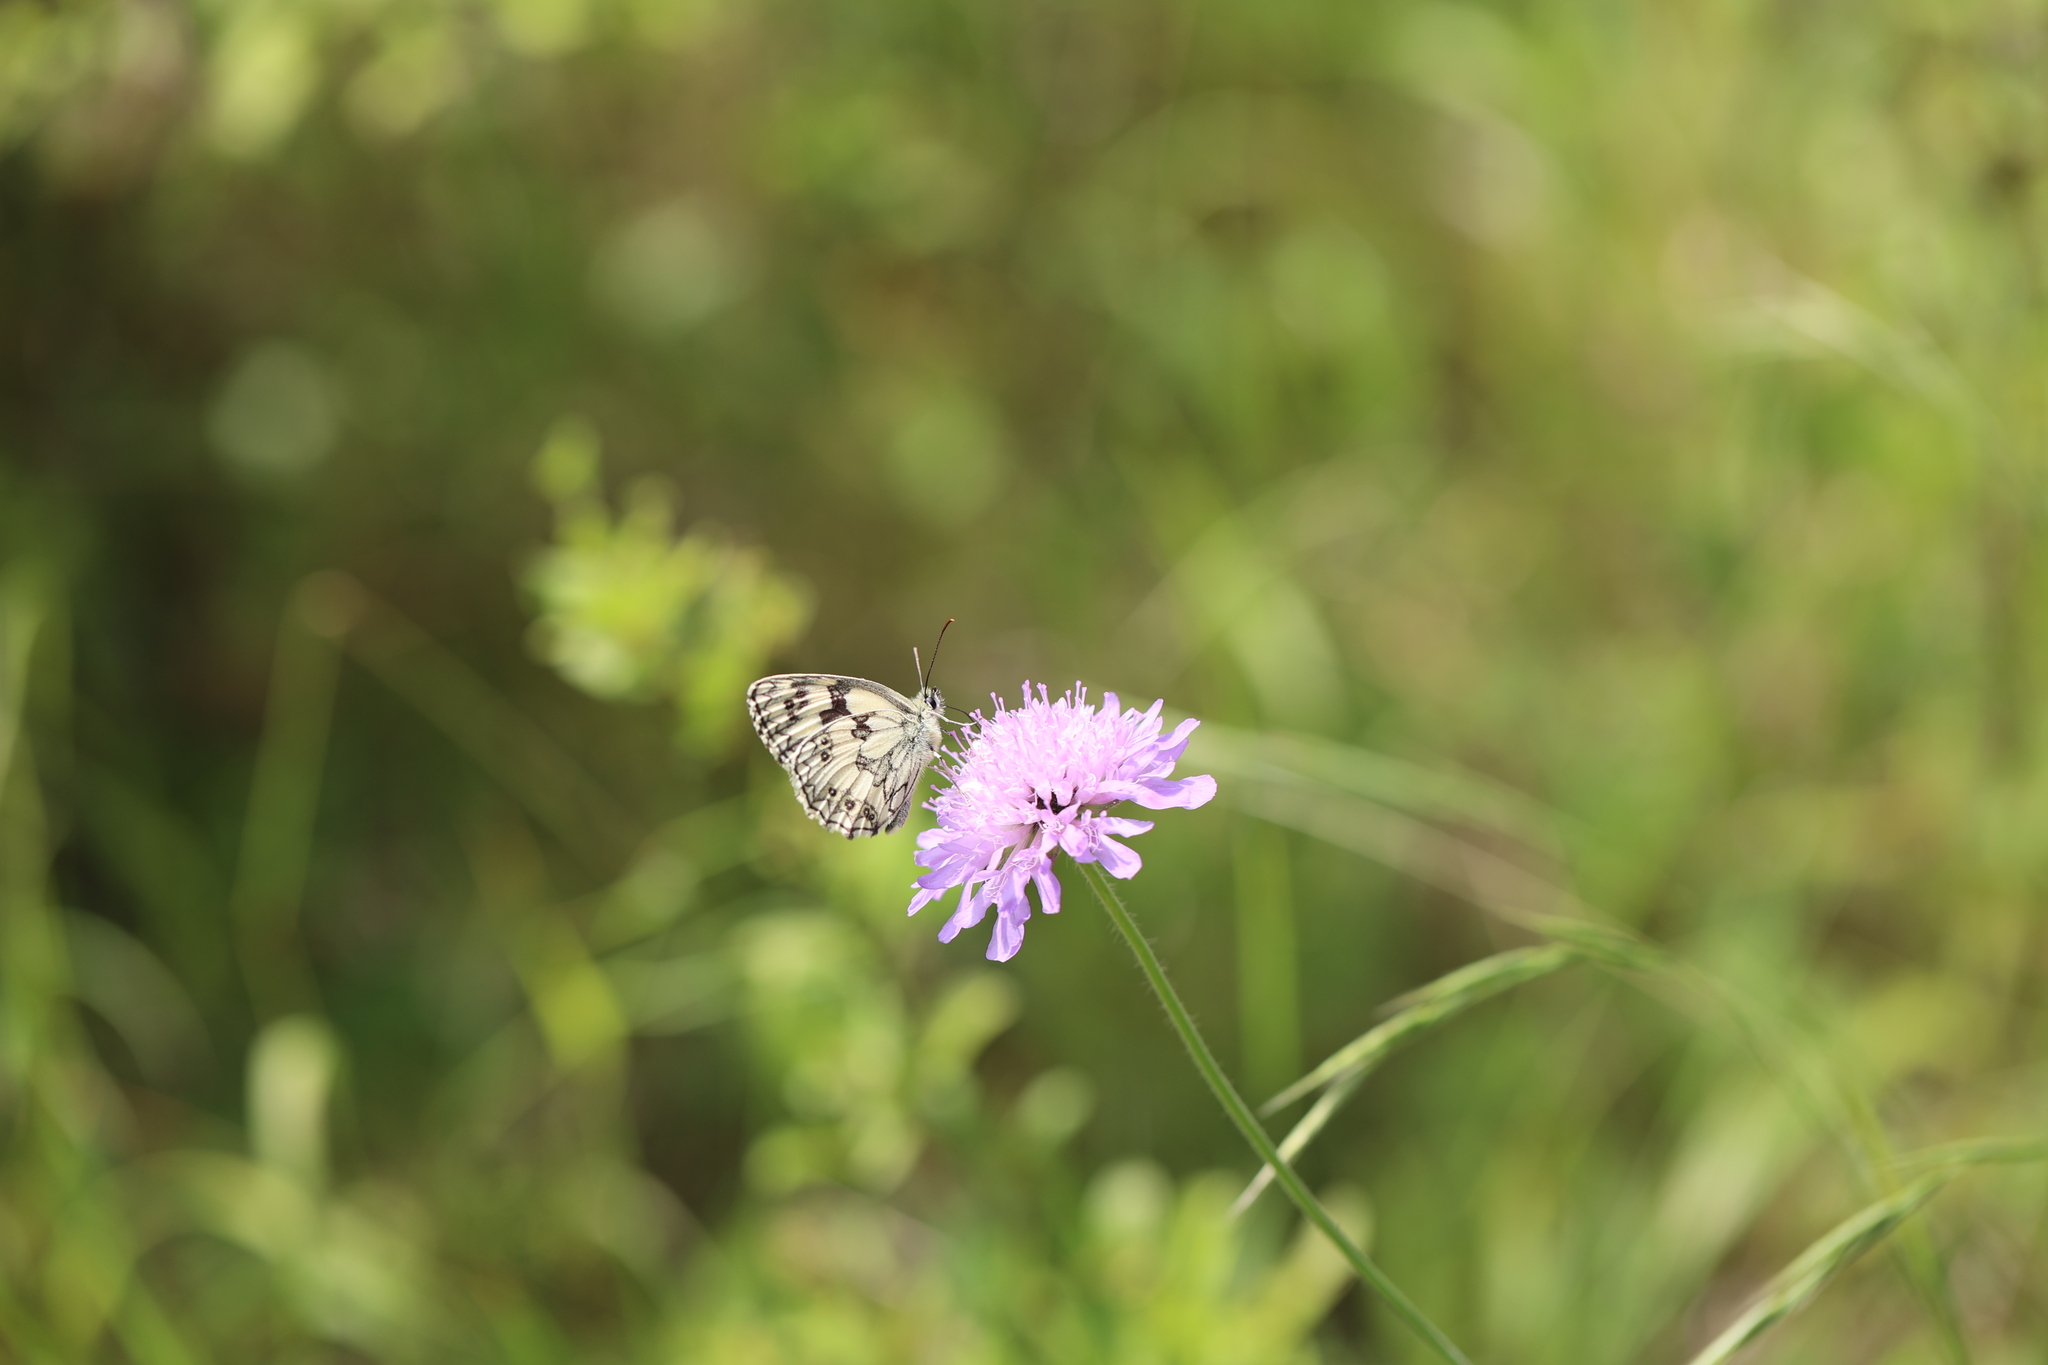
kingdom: Animalia
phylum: Arthropoda
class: Insecta
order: Lepidoptera
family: Nymphalidae
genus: Melanargia
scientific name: Melanargia galathea
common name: Marbled white
